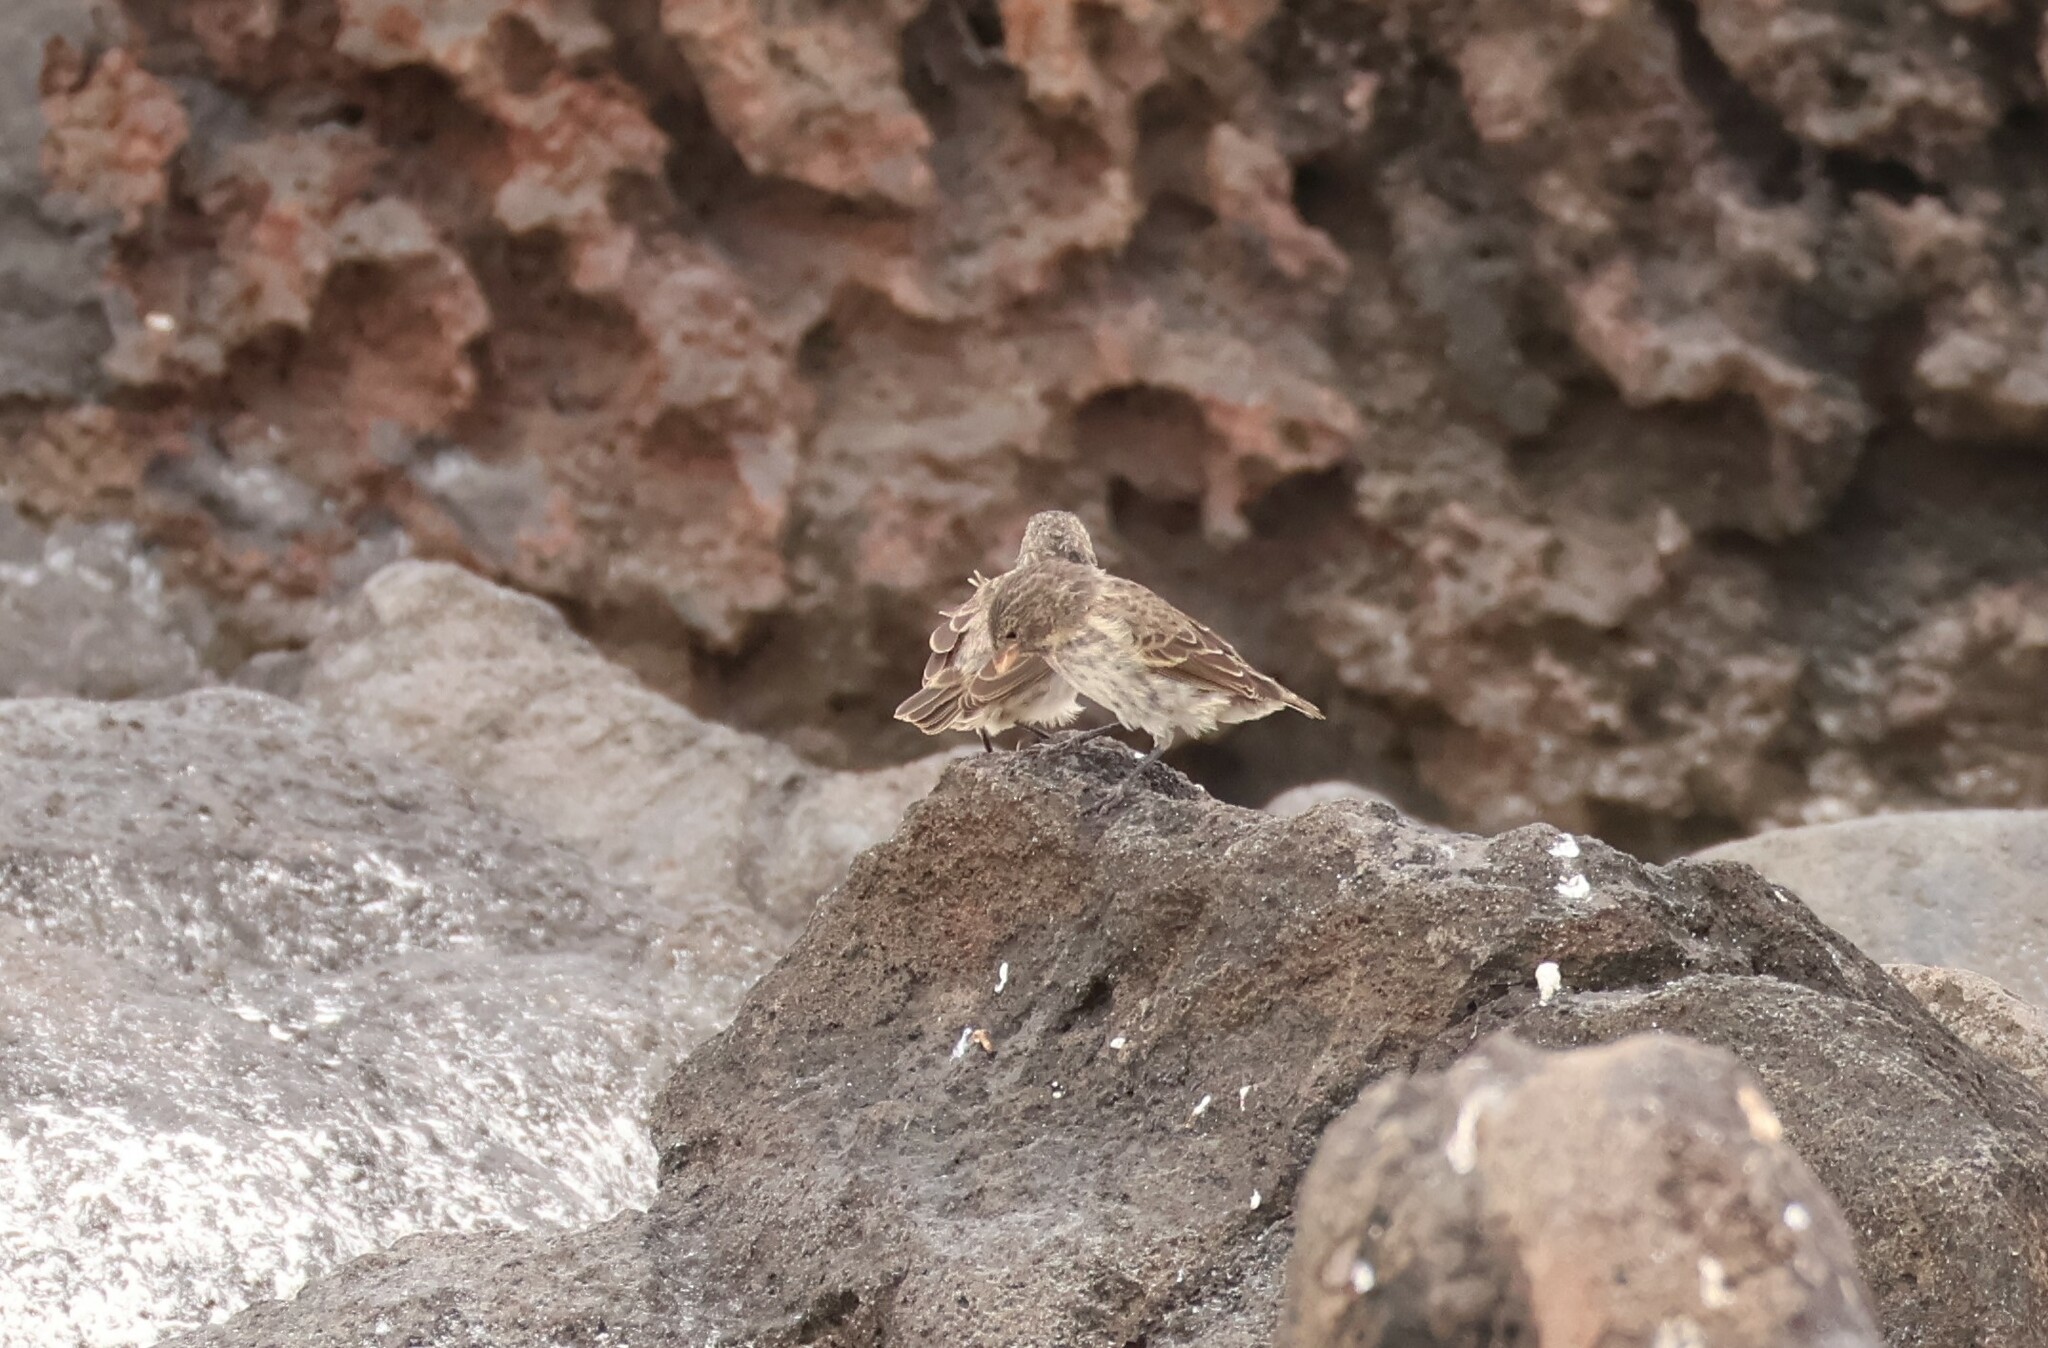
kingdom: Animalia
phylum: Chordata
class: Aves
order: Passeriformes
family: Thraupidae
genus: Geospiza
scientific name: Geospiza fuliginosa
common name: Small ground finch
